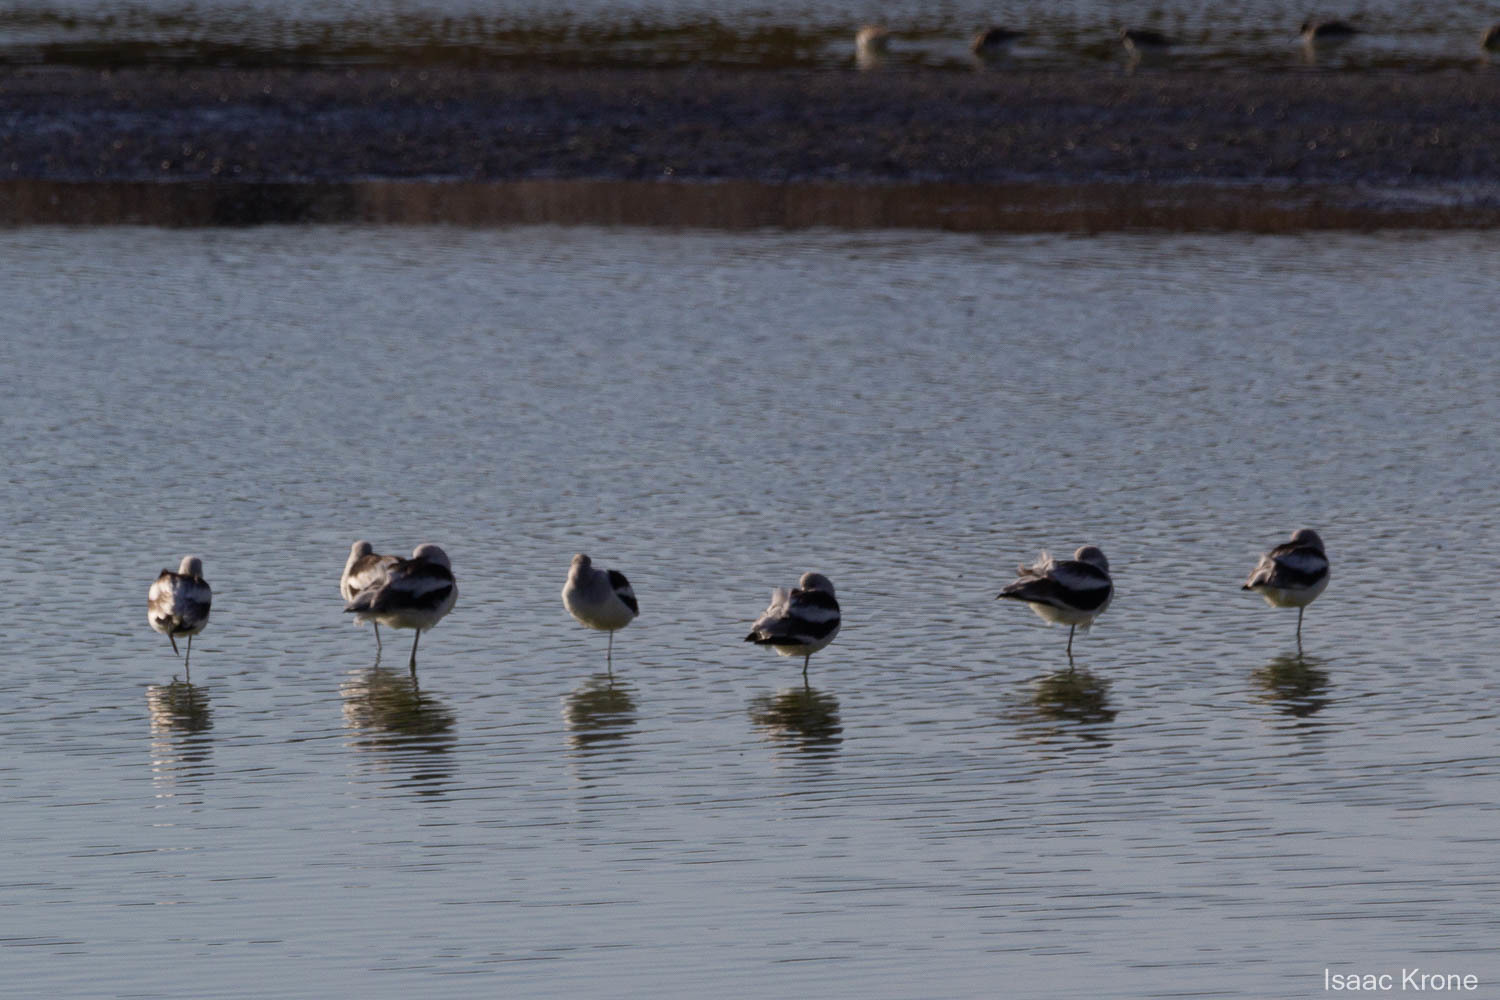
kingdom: Animalia
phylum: Chordata
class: Aves
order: Charadriiformes
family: Recurvirostridae
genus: Recurvirostra
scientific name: Recurvirostra americana
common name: American avocet
